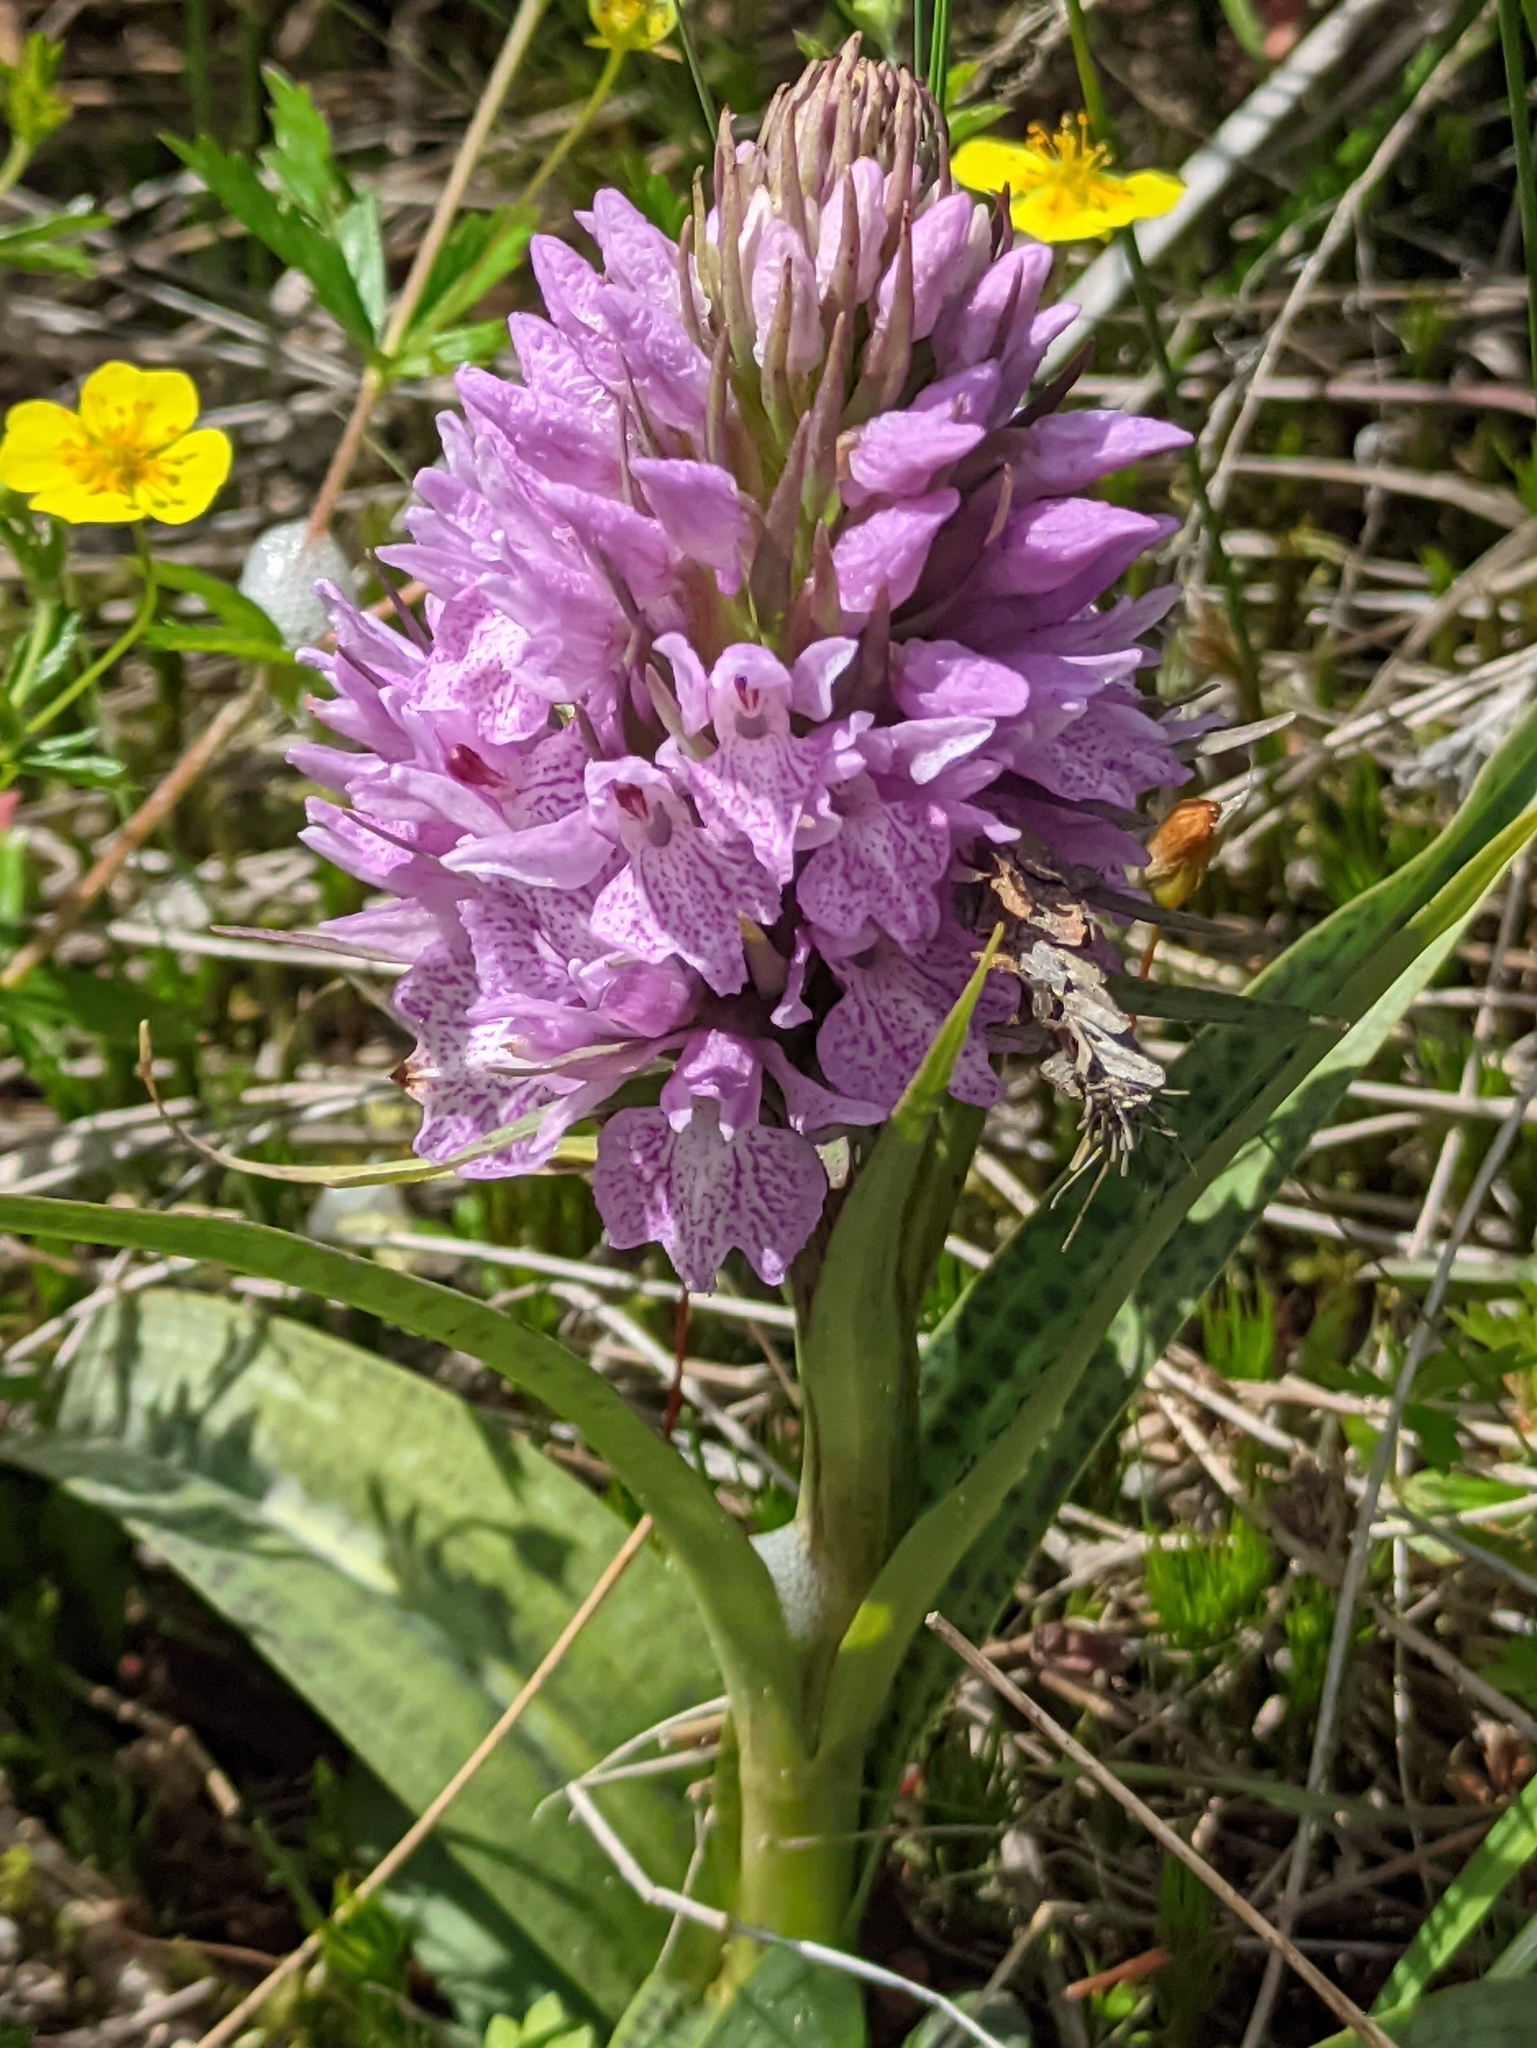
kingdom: Plantae
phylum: Tracheophyta
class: Liliopsida
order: Asparagales
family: Orchidaceae
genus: Dactylorhiza
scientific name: Dactylorhiza majalis
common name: Marsh orchid
